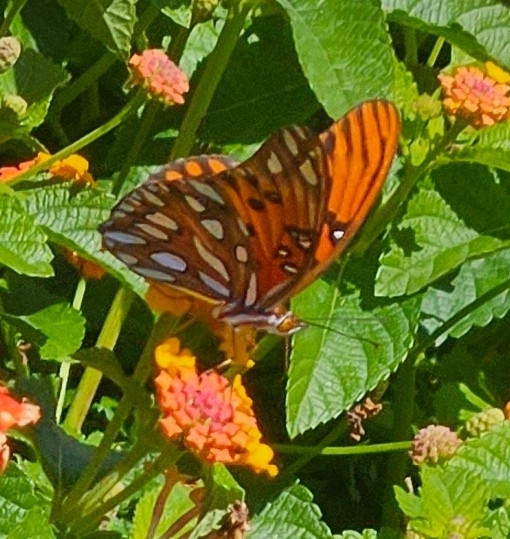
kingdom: Animalia
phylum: Arthropoda
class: Insecta
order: Lepidoptera
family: Nymphalidae
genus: Dione
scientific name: Dione vanillae
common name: Gulf fritillary
